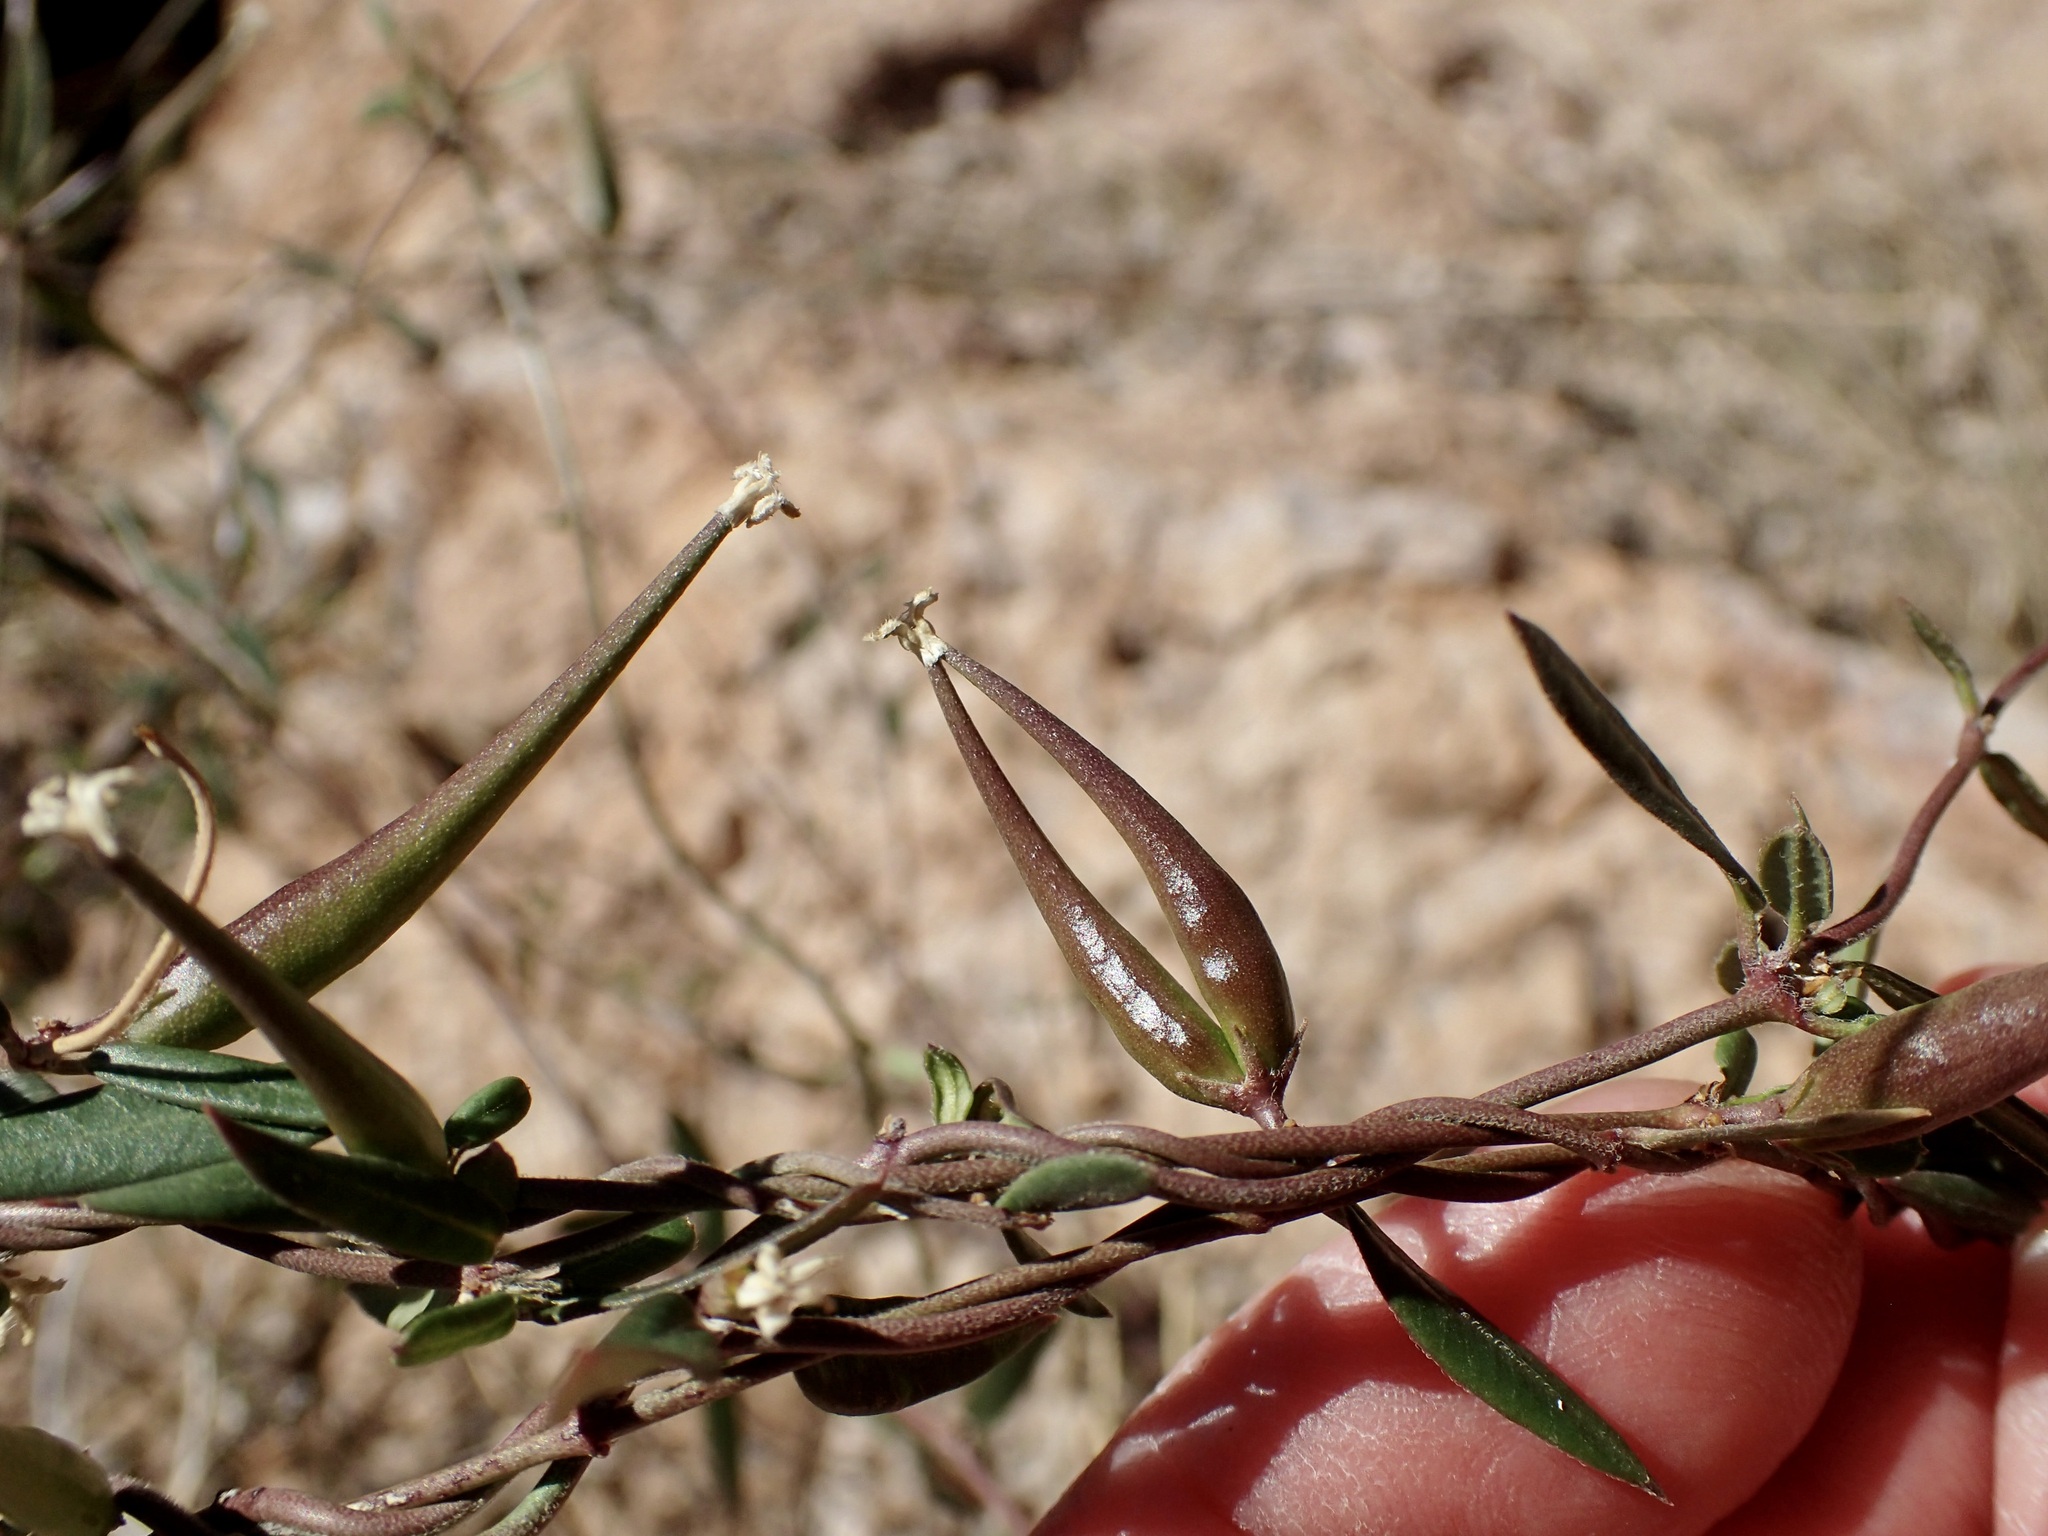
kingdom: Plantae
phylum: Tracheophyta
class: Magnoliopsida
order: Gentianales
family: Apocynaceae
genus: Metastelma
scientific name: Metastelma arizonicum
